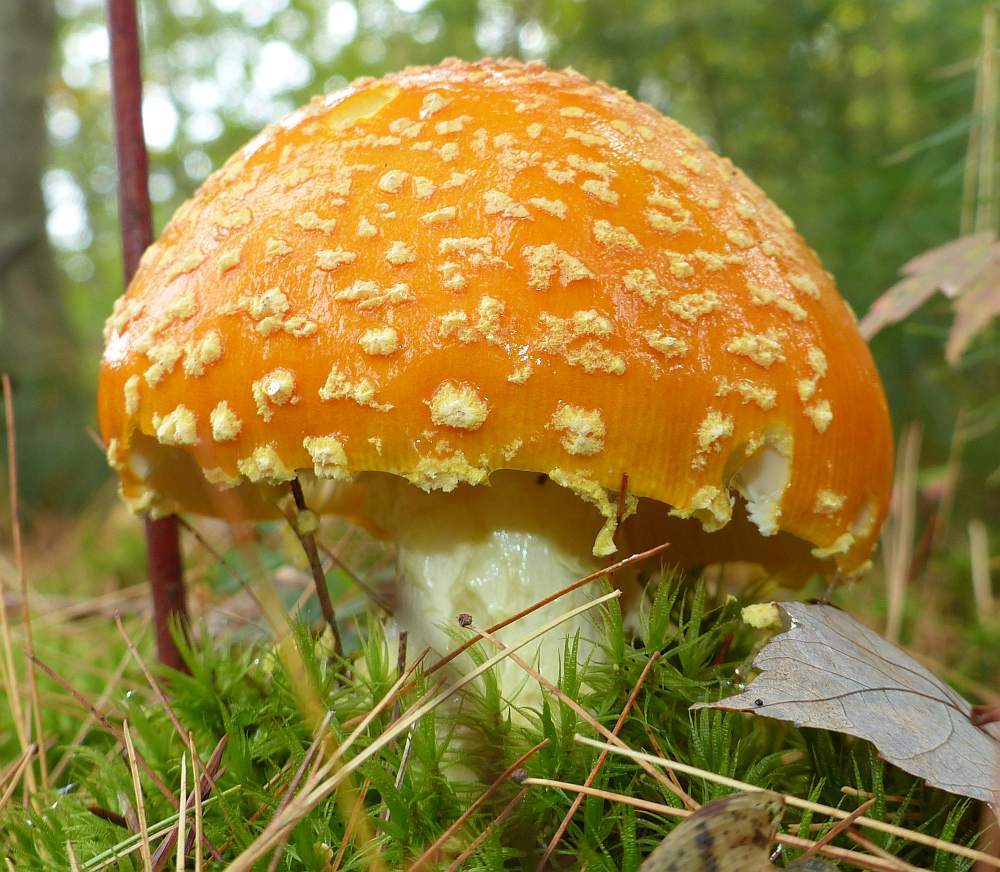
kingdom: Fungi
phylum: Basidiomycota
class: Agaricomycetes
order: Agaricales
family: Amanitaceae
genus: Amanita
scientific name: Amanita muscaria
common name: Fly agaric
